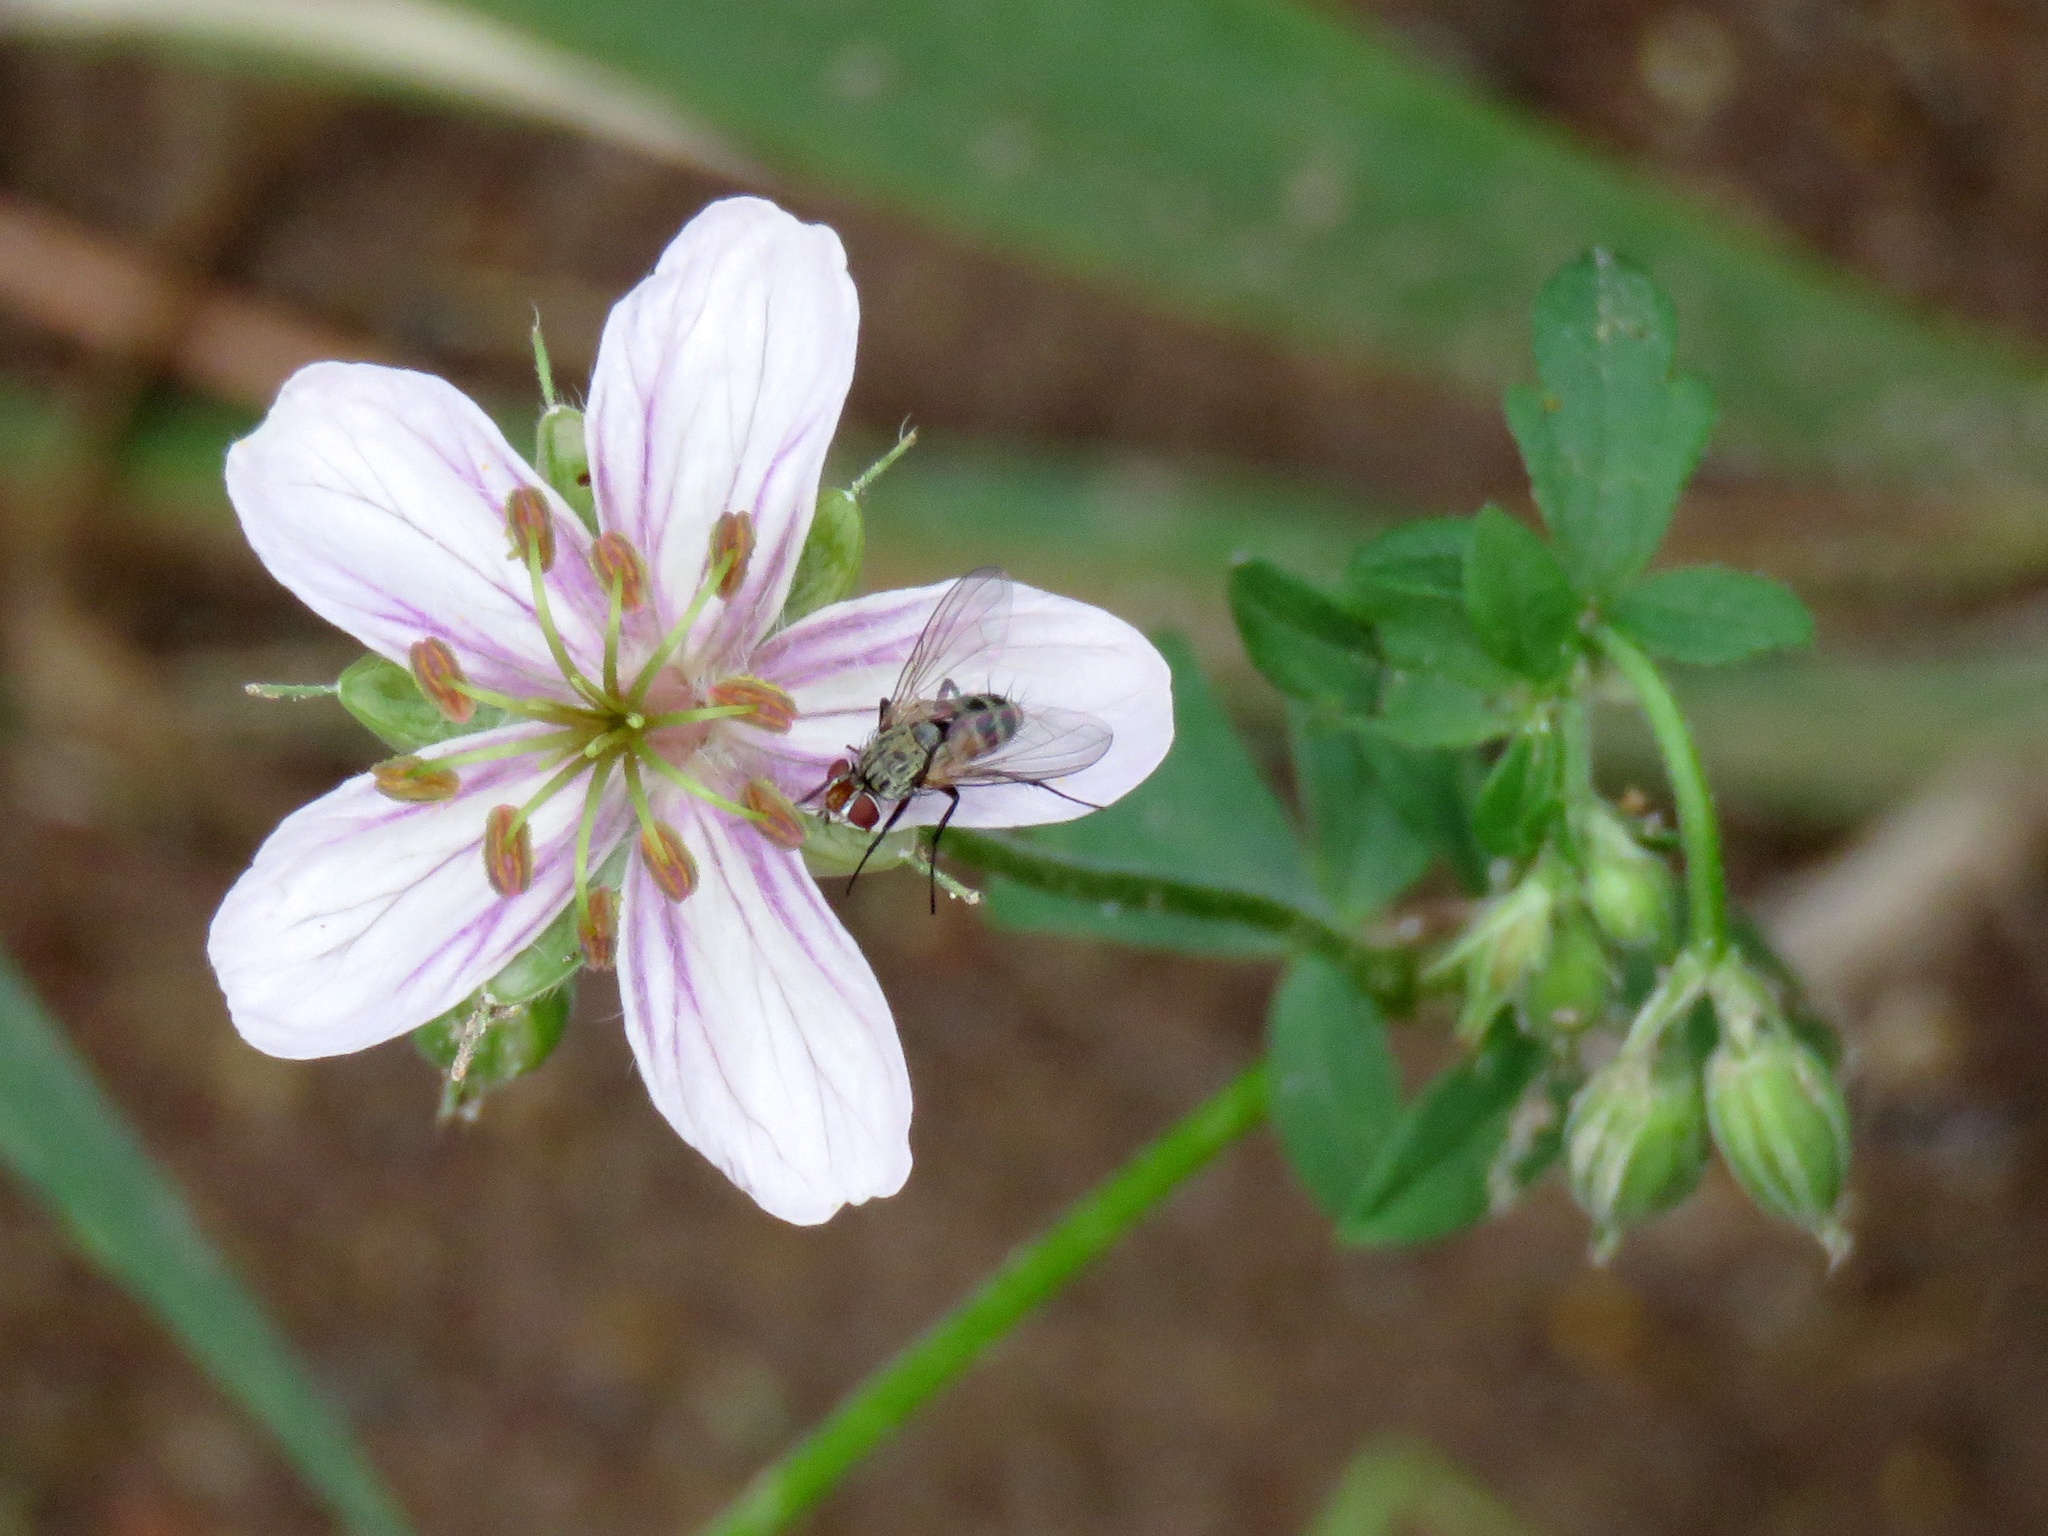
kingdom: Plantae
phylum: Tracheophyta
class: Magnoliopsida
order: Geraniales
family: Geraniaceae
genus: Geranium
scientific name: Geranium caespitosum
